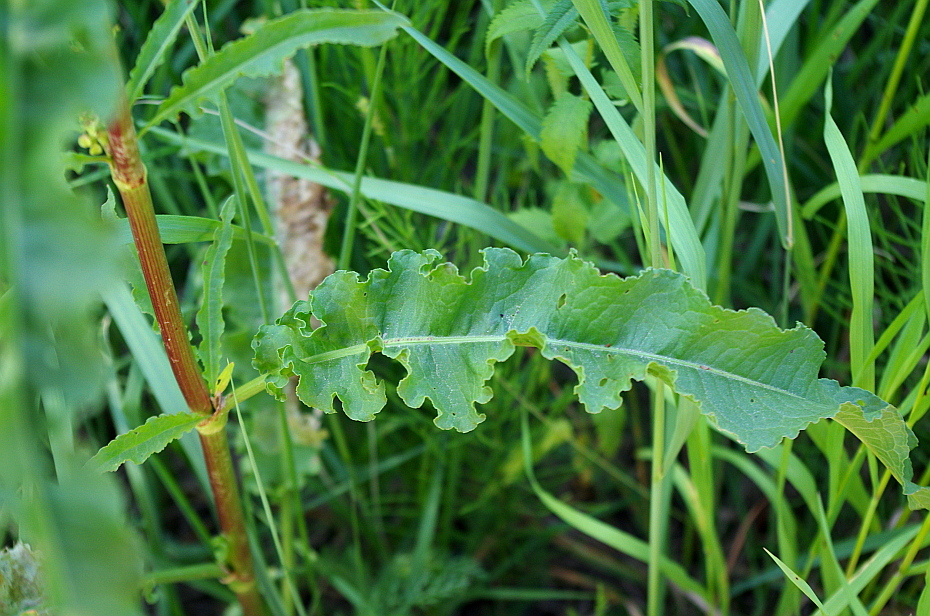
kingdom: Plantae
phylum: Tracheophyta
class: Magnoliopsida
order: Caryophyllales
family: Polygonaceae
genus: Rumex
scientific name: Rumex crispus
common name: Curled dock
